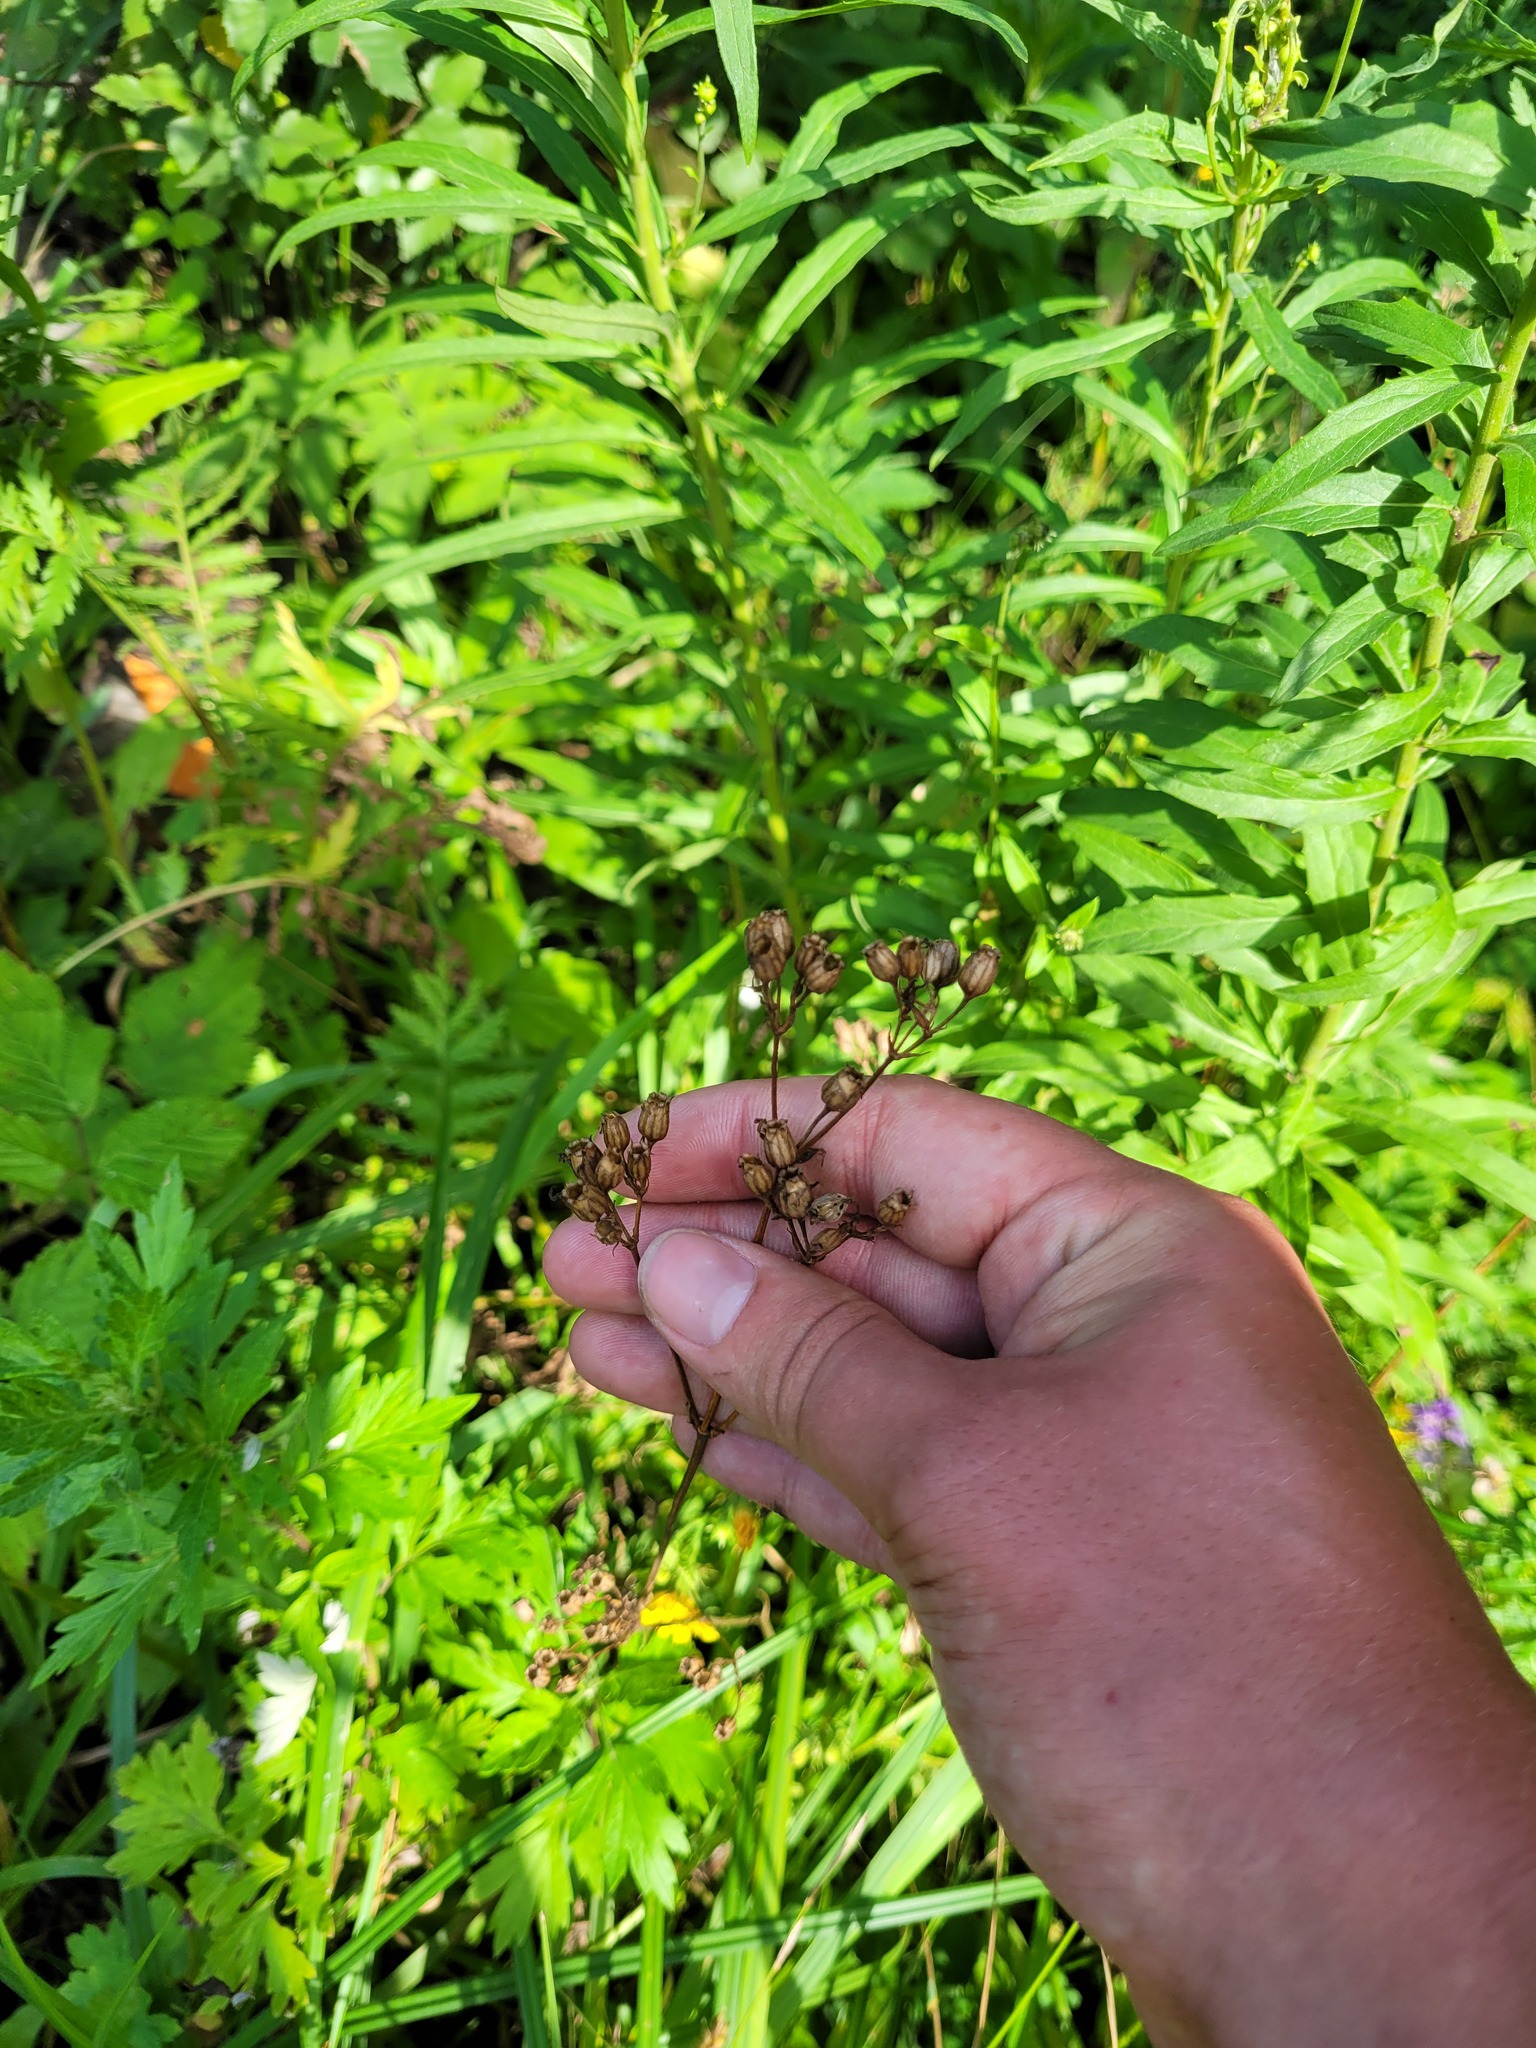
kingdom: Plantae
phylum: Tracheophyta
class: Magnoliopsida
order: Caryophyllales
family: Caryophyllaceae
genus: Silene
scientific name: Silene flos-cuculi
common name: Ragged-robin
